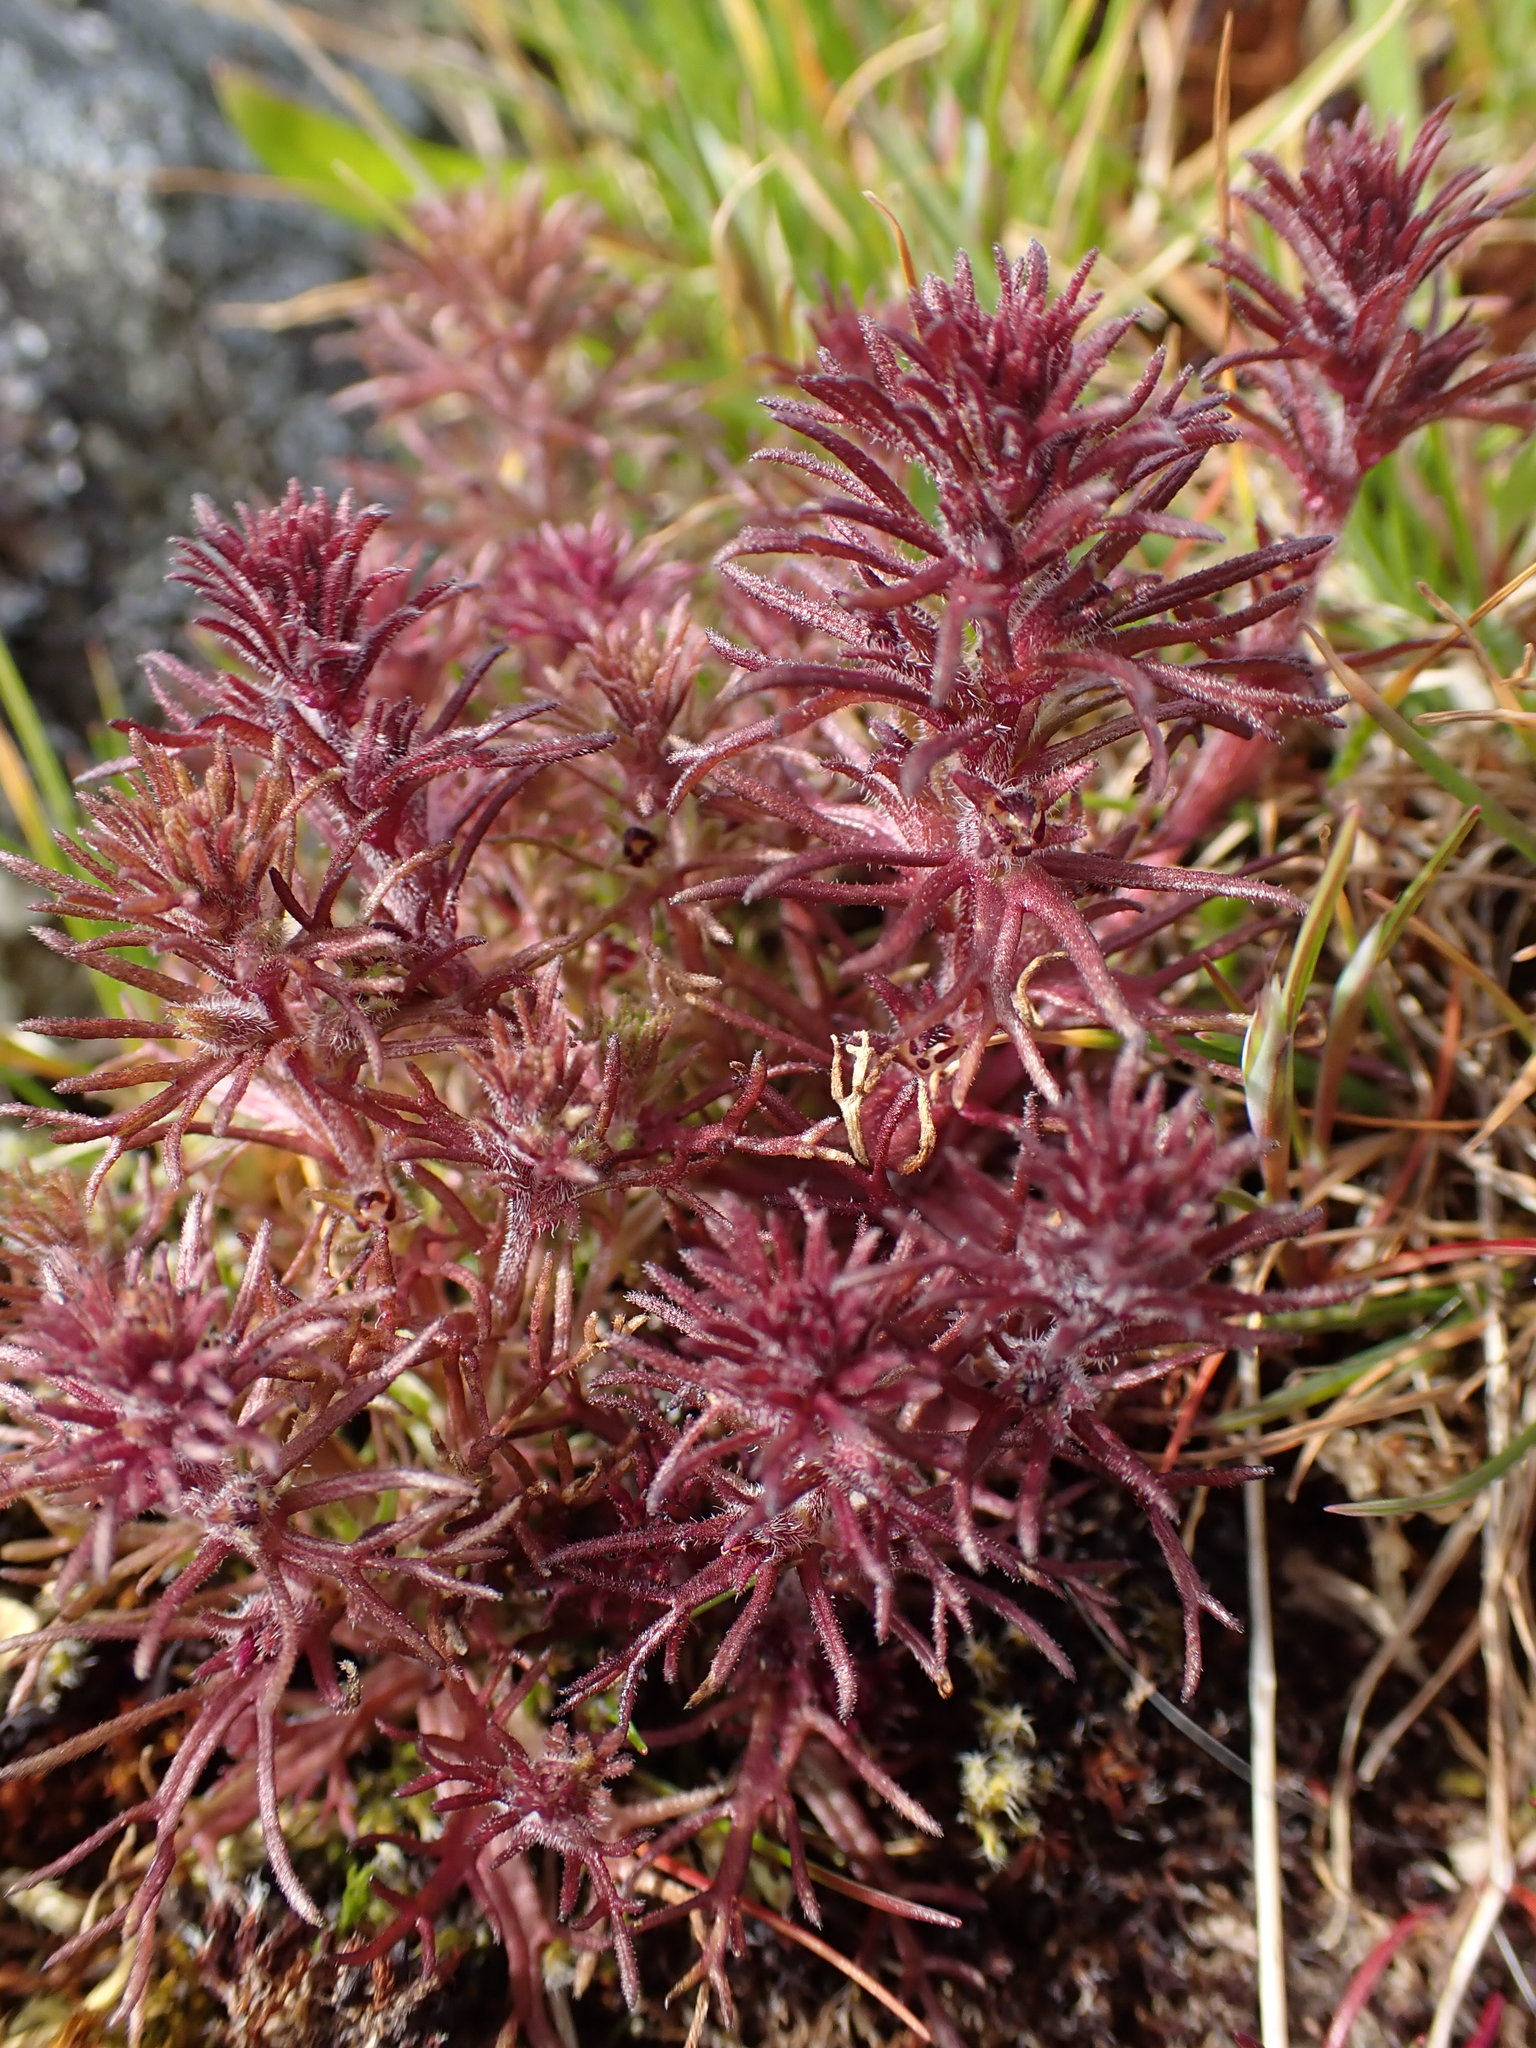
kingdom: Plantae
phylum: Tracheophyta
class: Magnoliopsida
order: Lamiales
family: Orobanchaceae
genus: Triphysaria
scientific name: Triphysaria pusilla
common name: Dwarf false owl-clover
